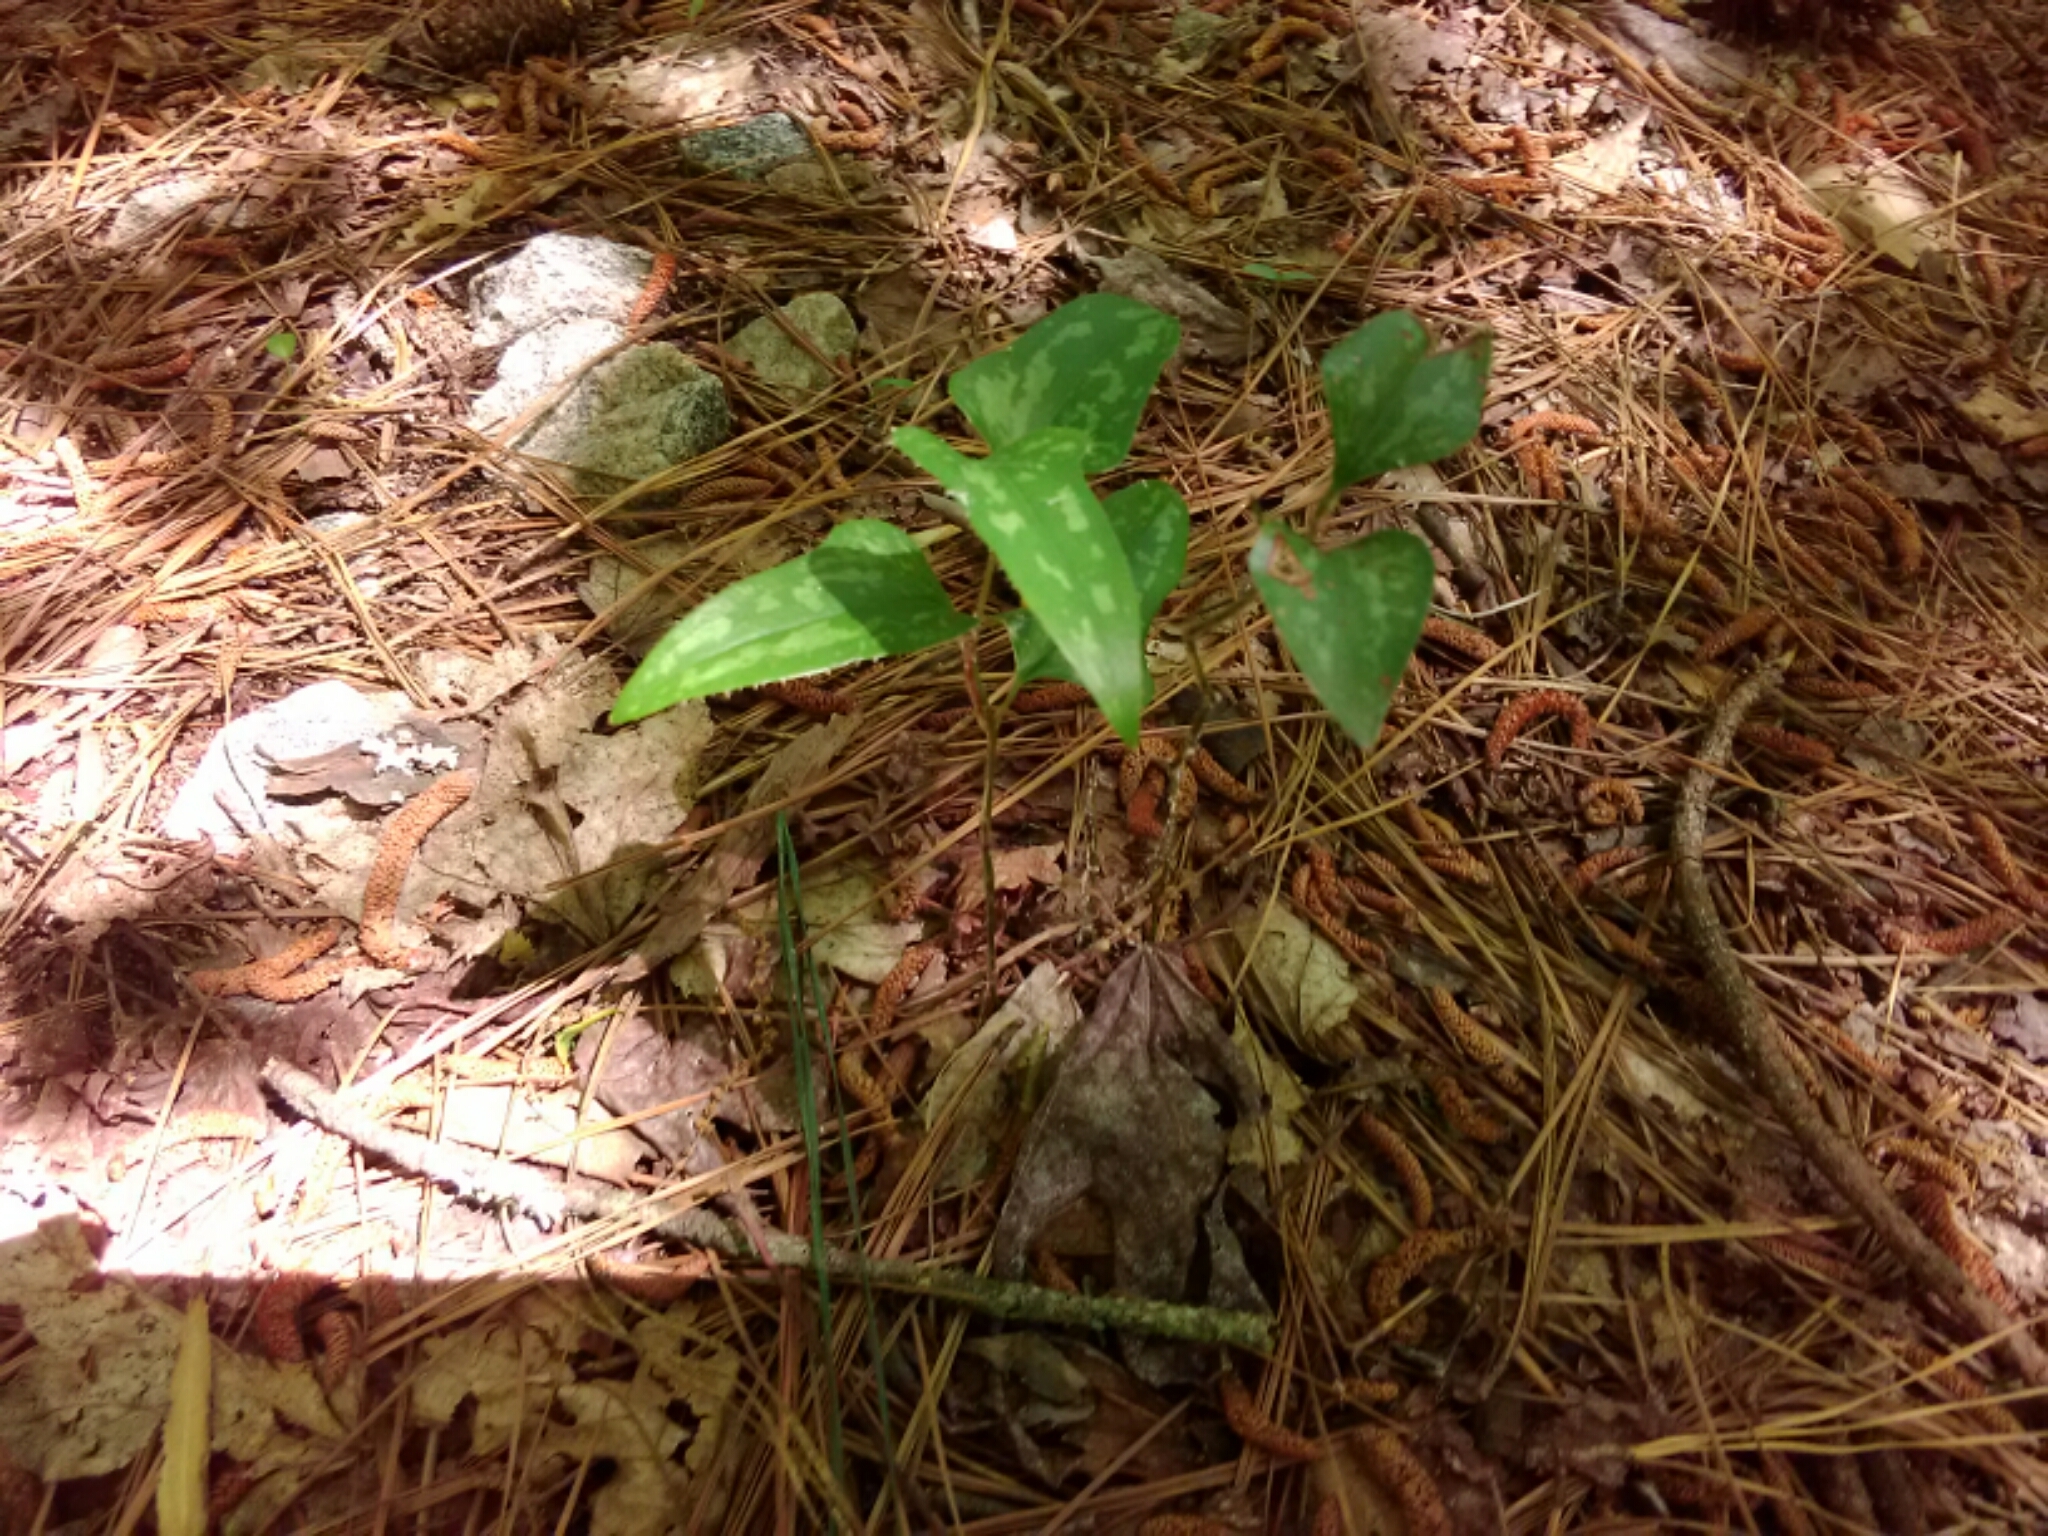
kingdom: Plantae
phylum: Tracheophyta
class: Liliopsida
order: Liliales
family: Smilacaceae
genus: Smilax
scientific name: Smilax bona-nox
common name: Catbrier
